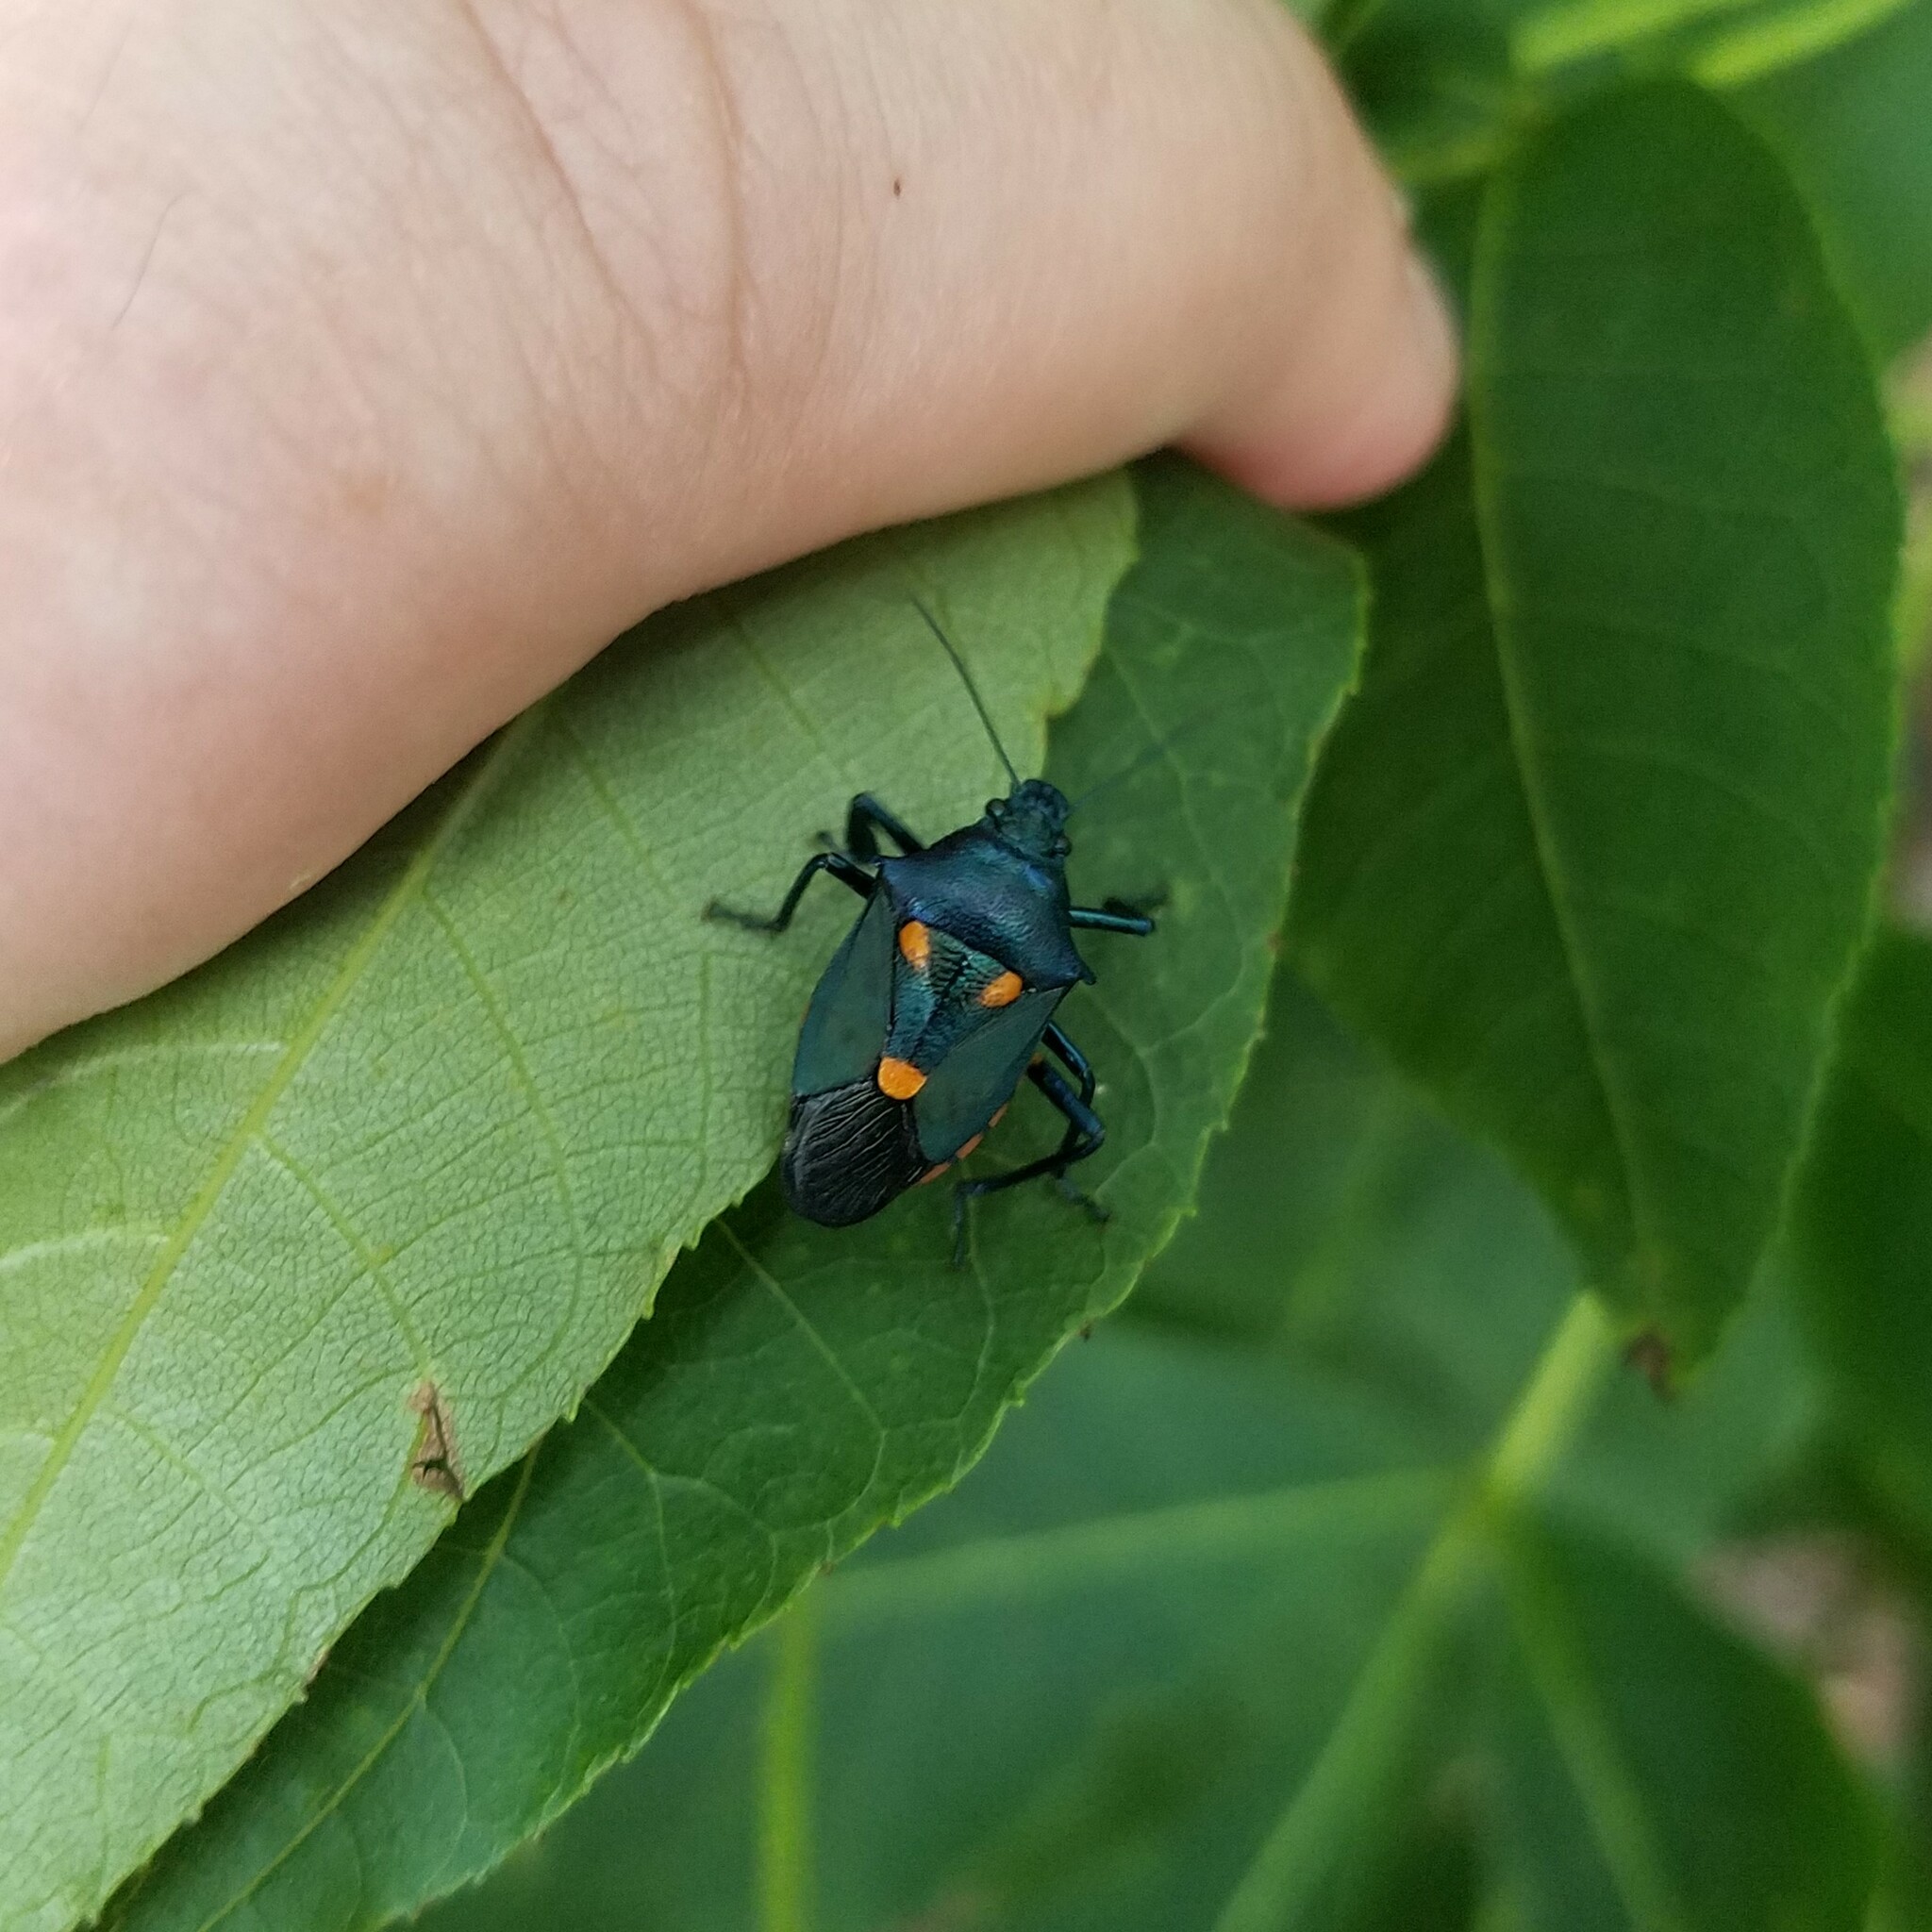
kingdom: Animalia
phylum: Arthropoda
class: Insecta
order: Hemiptera
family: Pentatomidae
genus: Euthyrhynchus
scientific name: Euthyrhynchus floridanus
